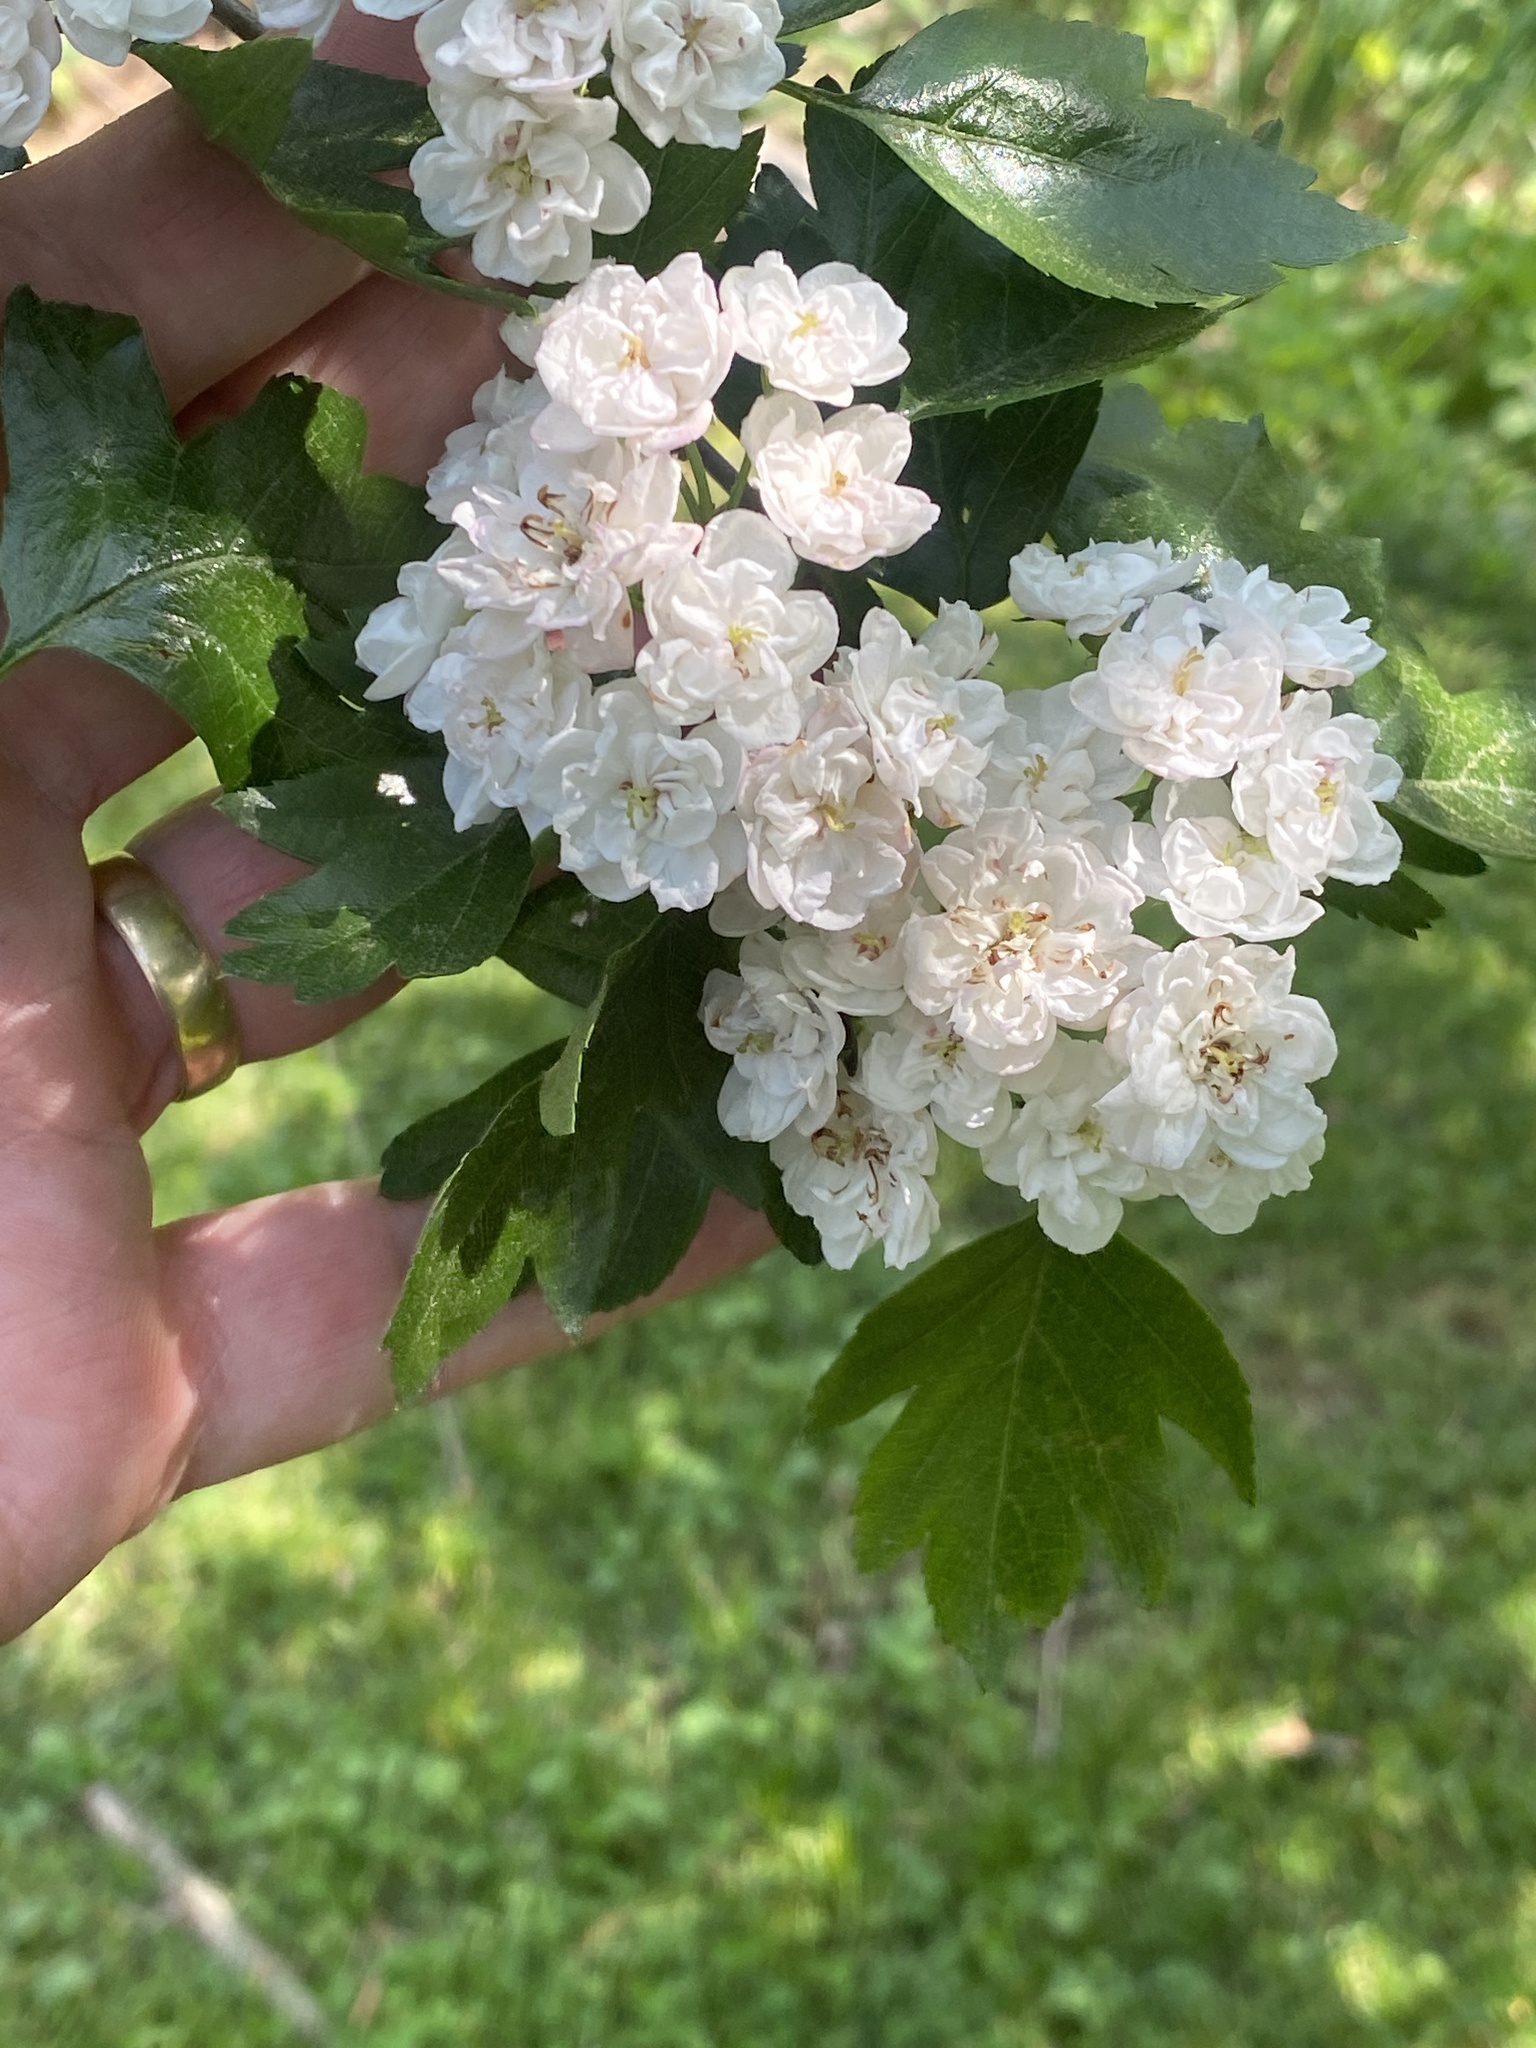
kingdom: Plantae
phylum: Tracheophyta
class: Magnoliopsida
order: Rosales
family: Rosaceae
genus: Crataegus
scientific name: Crataegus monogyna
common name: Hawthorn
